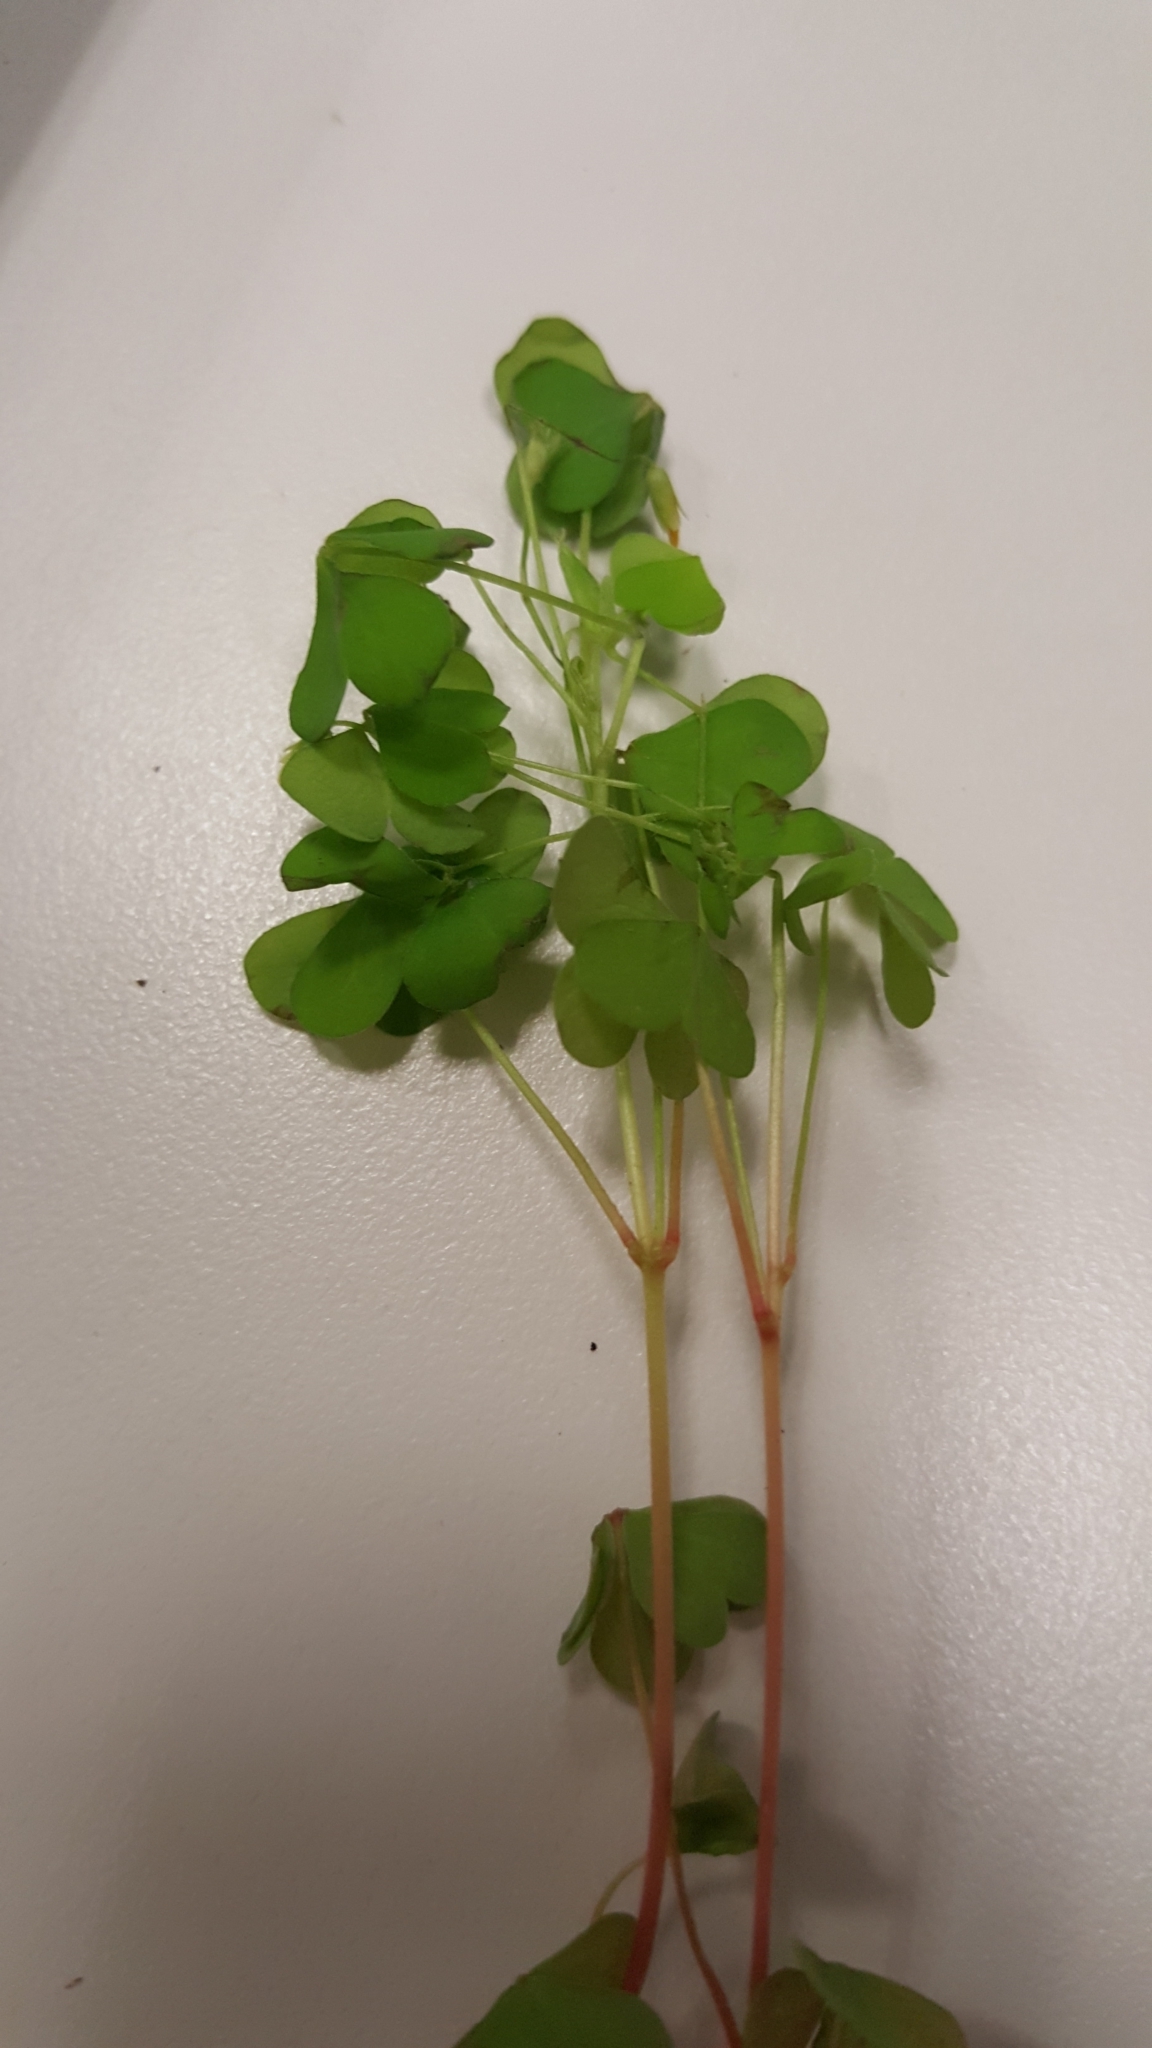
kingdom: Plantae
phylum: Tracheophyta
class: Magnoliopsida
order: Oxalidales
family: Oxalidaceae
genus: Oxalis
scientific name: Oxalis stricta
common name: Upright yellow-sorrel
